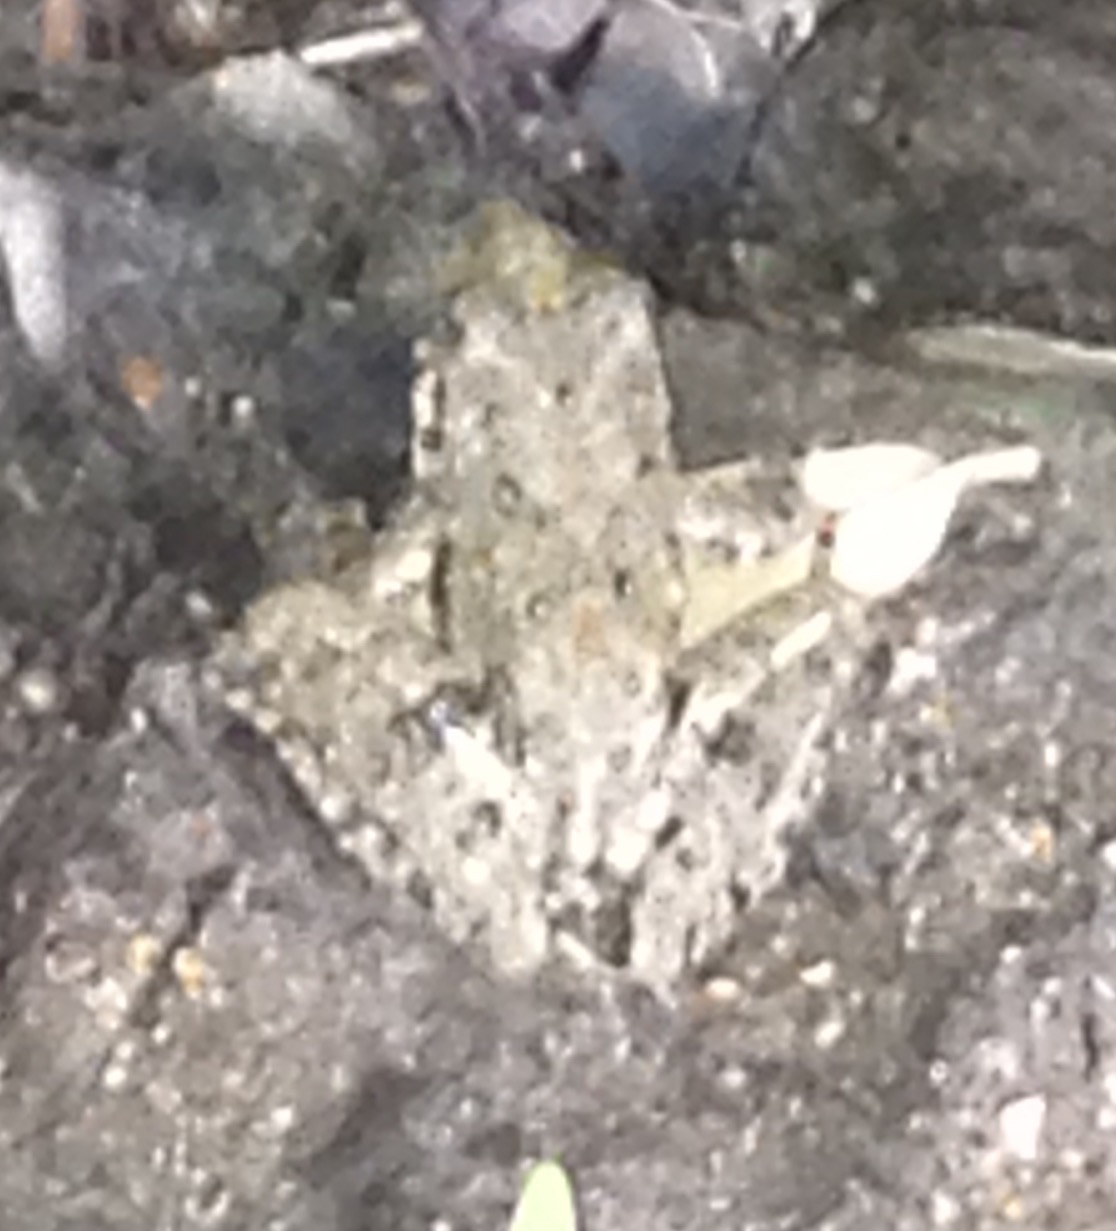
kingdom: Animalia
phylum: Chordata
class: Amphibia
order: Anura
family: Hylidae
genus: Acris
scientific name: Acris blanchardi
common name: Blanchard's cricket frog
